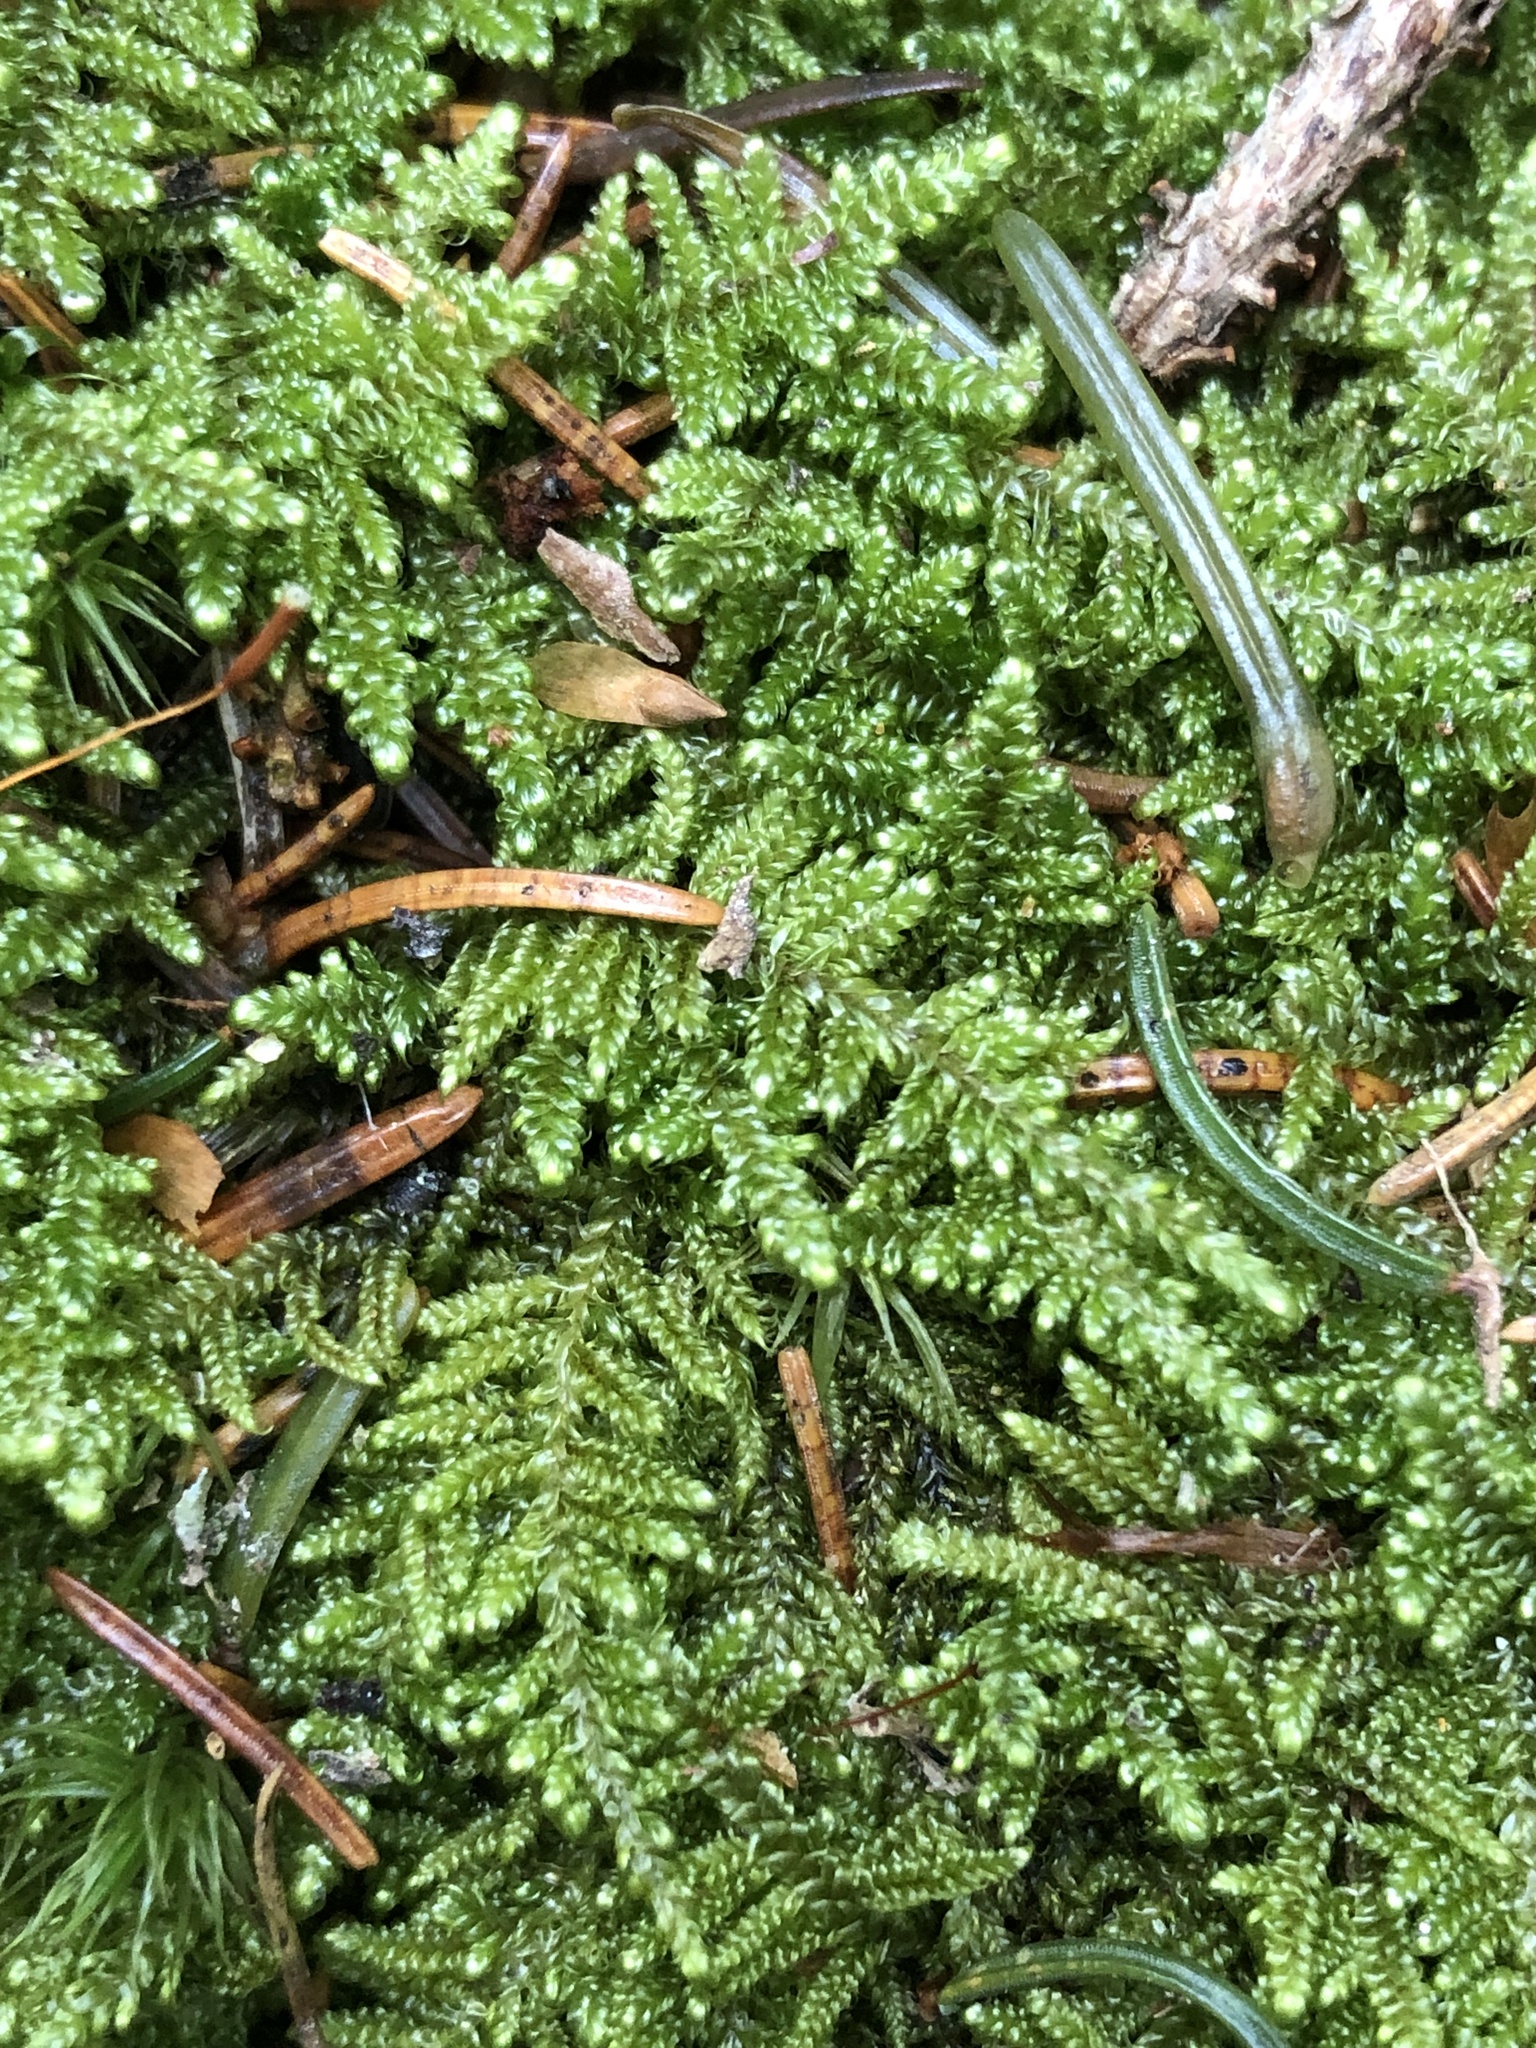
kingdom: Plantae
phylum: Bryophyta
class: Bryopsida
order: Hypnales
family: Callicladiaceae
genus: Callicladium
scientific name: Callicladium imponens
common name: Brocade moss
